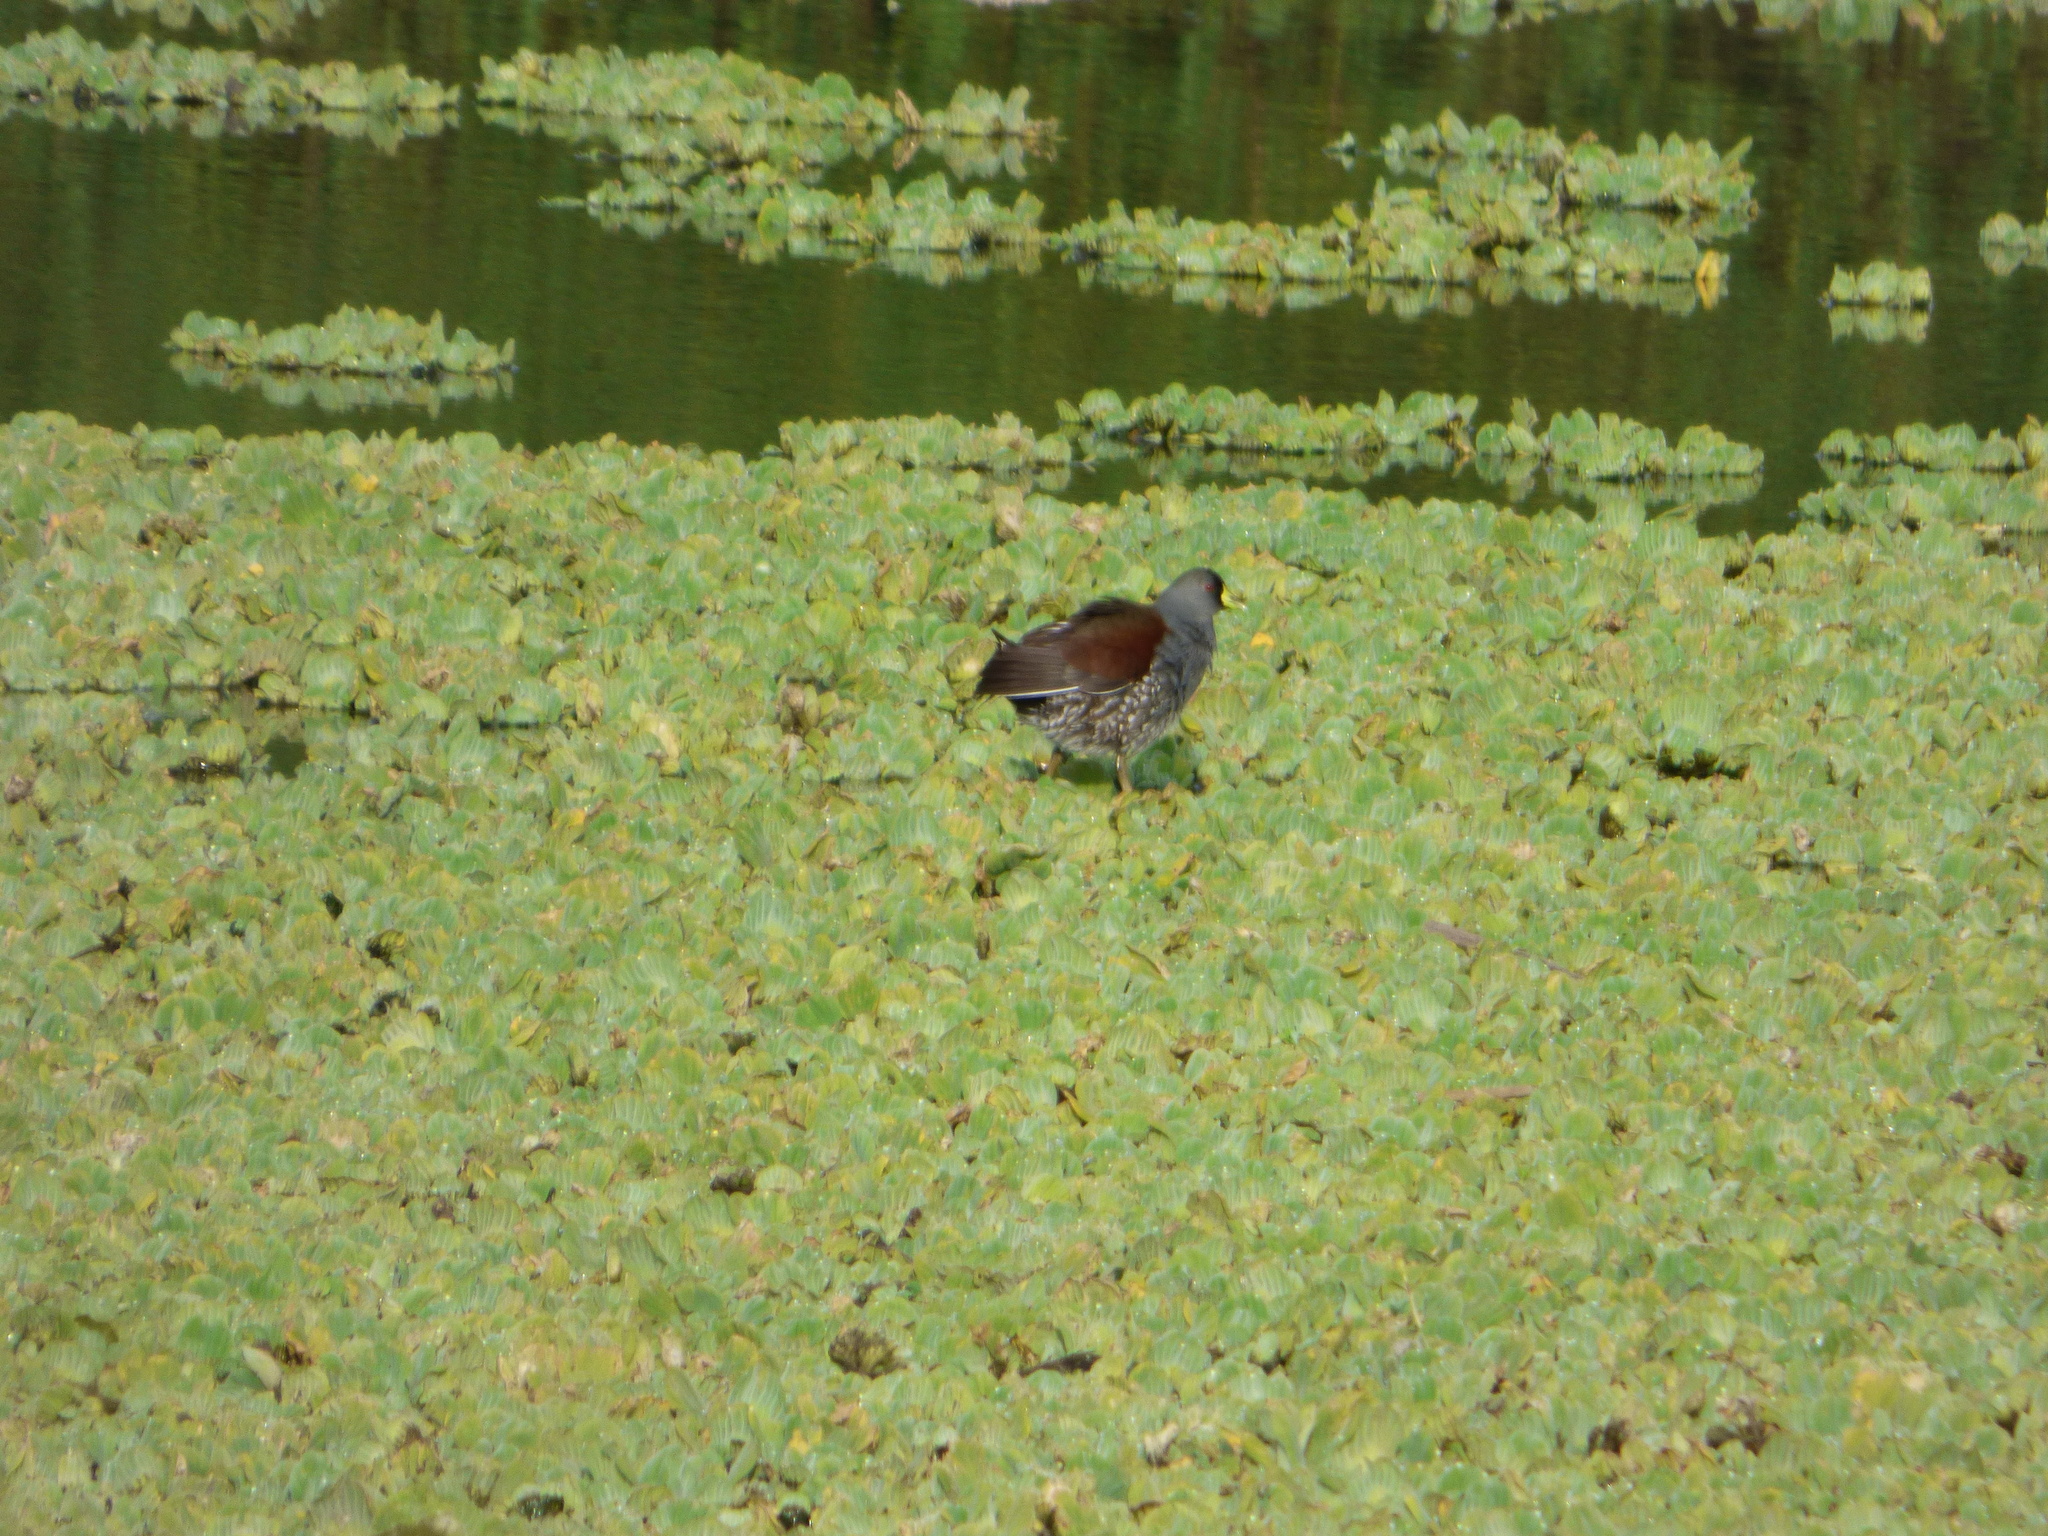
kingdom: Animalia
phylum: Chordata
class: Aves
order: Gruiformes
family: Rallidae
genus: Gallinula
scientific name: Gallinula melanops
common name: Spot-flanked gallinule
